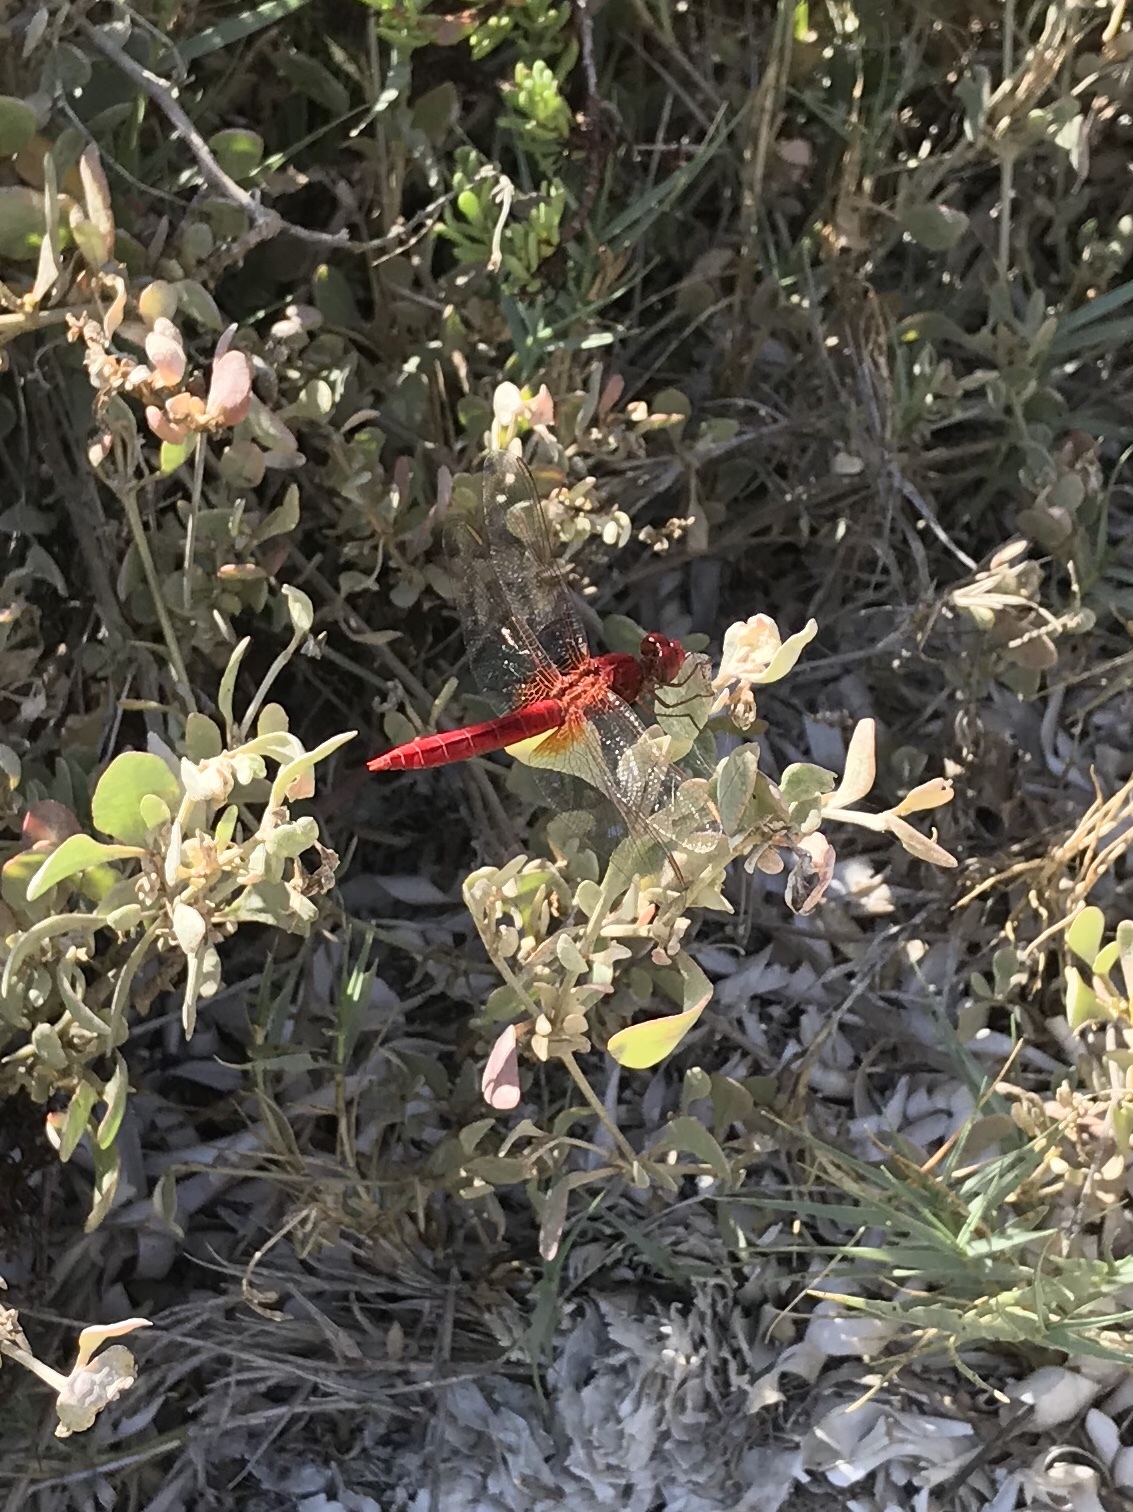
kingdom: Animalia
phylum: Arthropoda
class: Insecta
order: Odonata
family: Libellulidae
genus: Crocothemis
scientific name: Crocothemis erythraea
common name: Scarlet dragonfly
